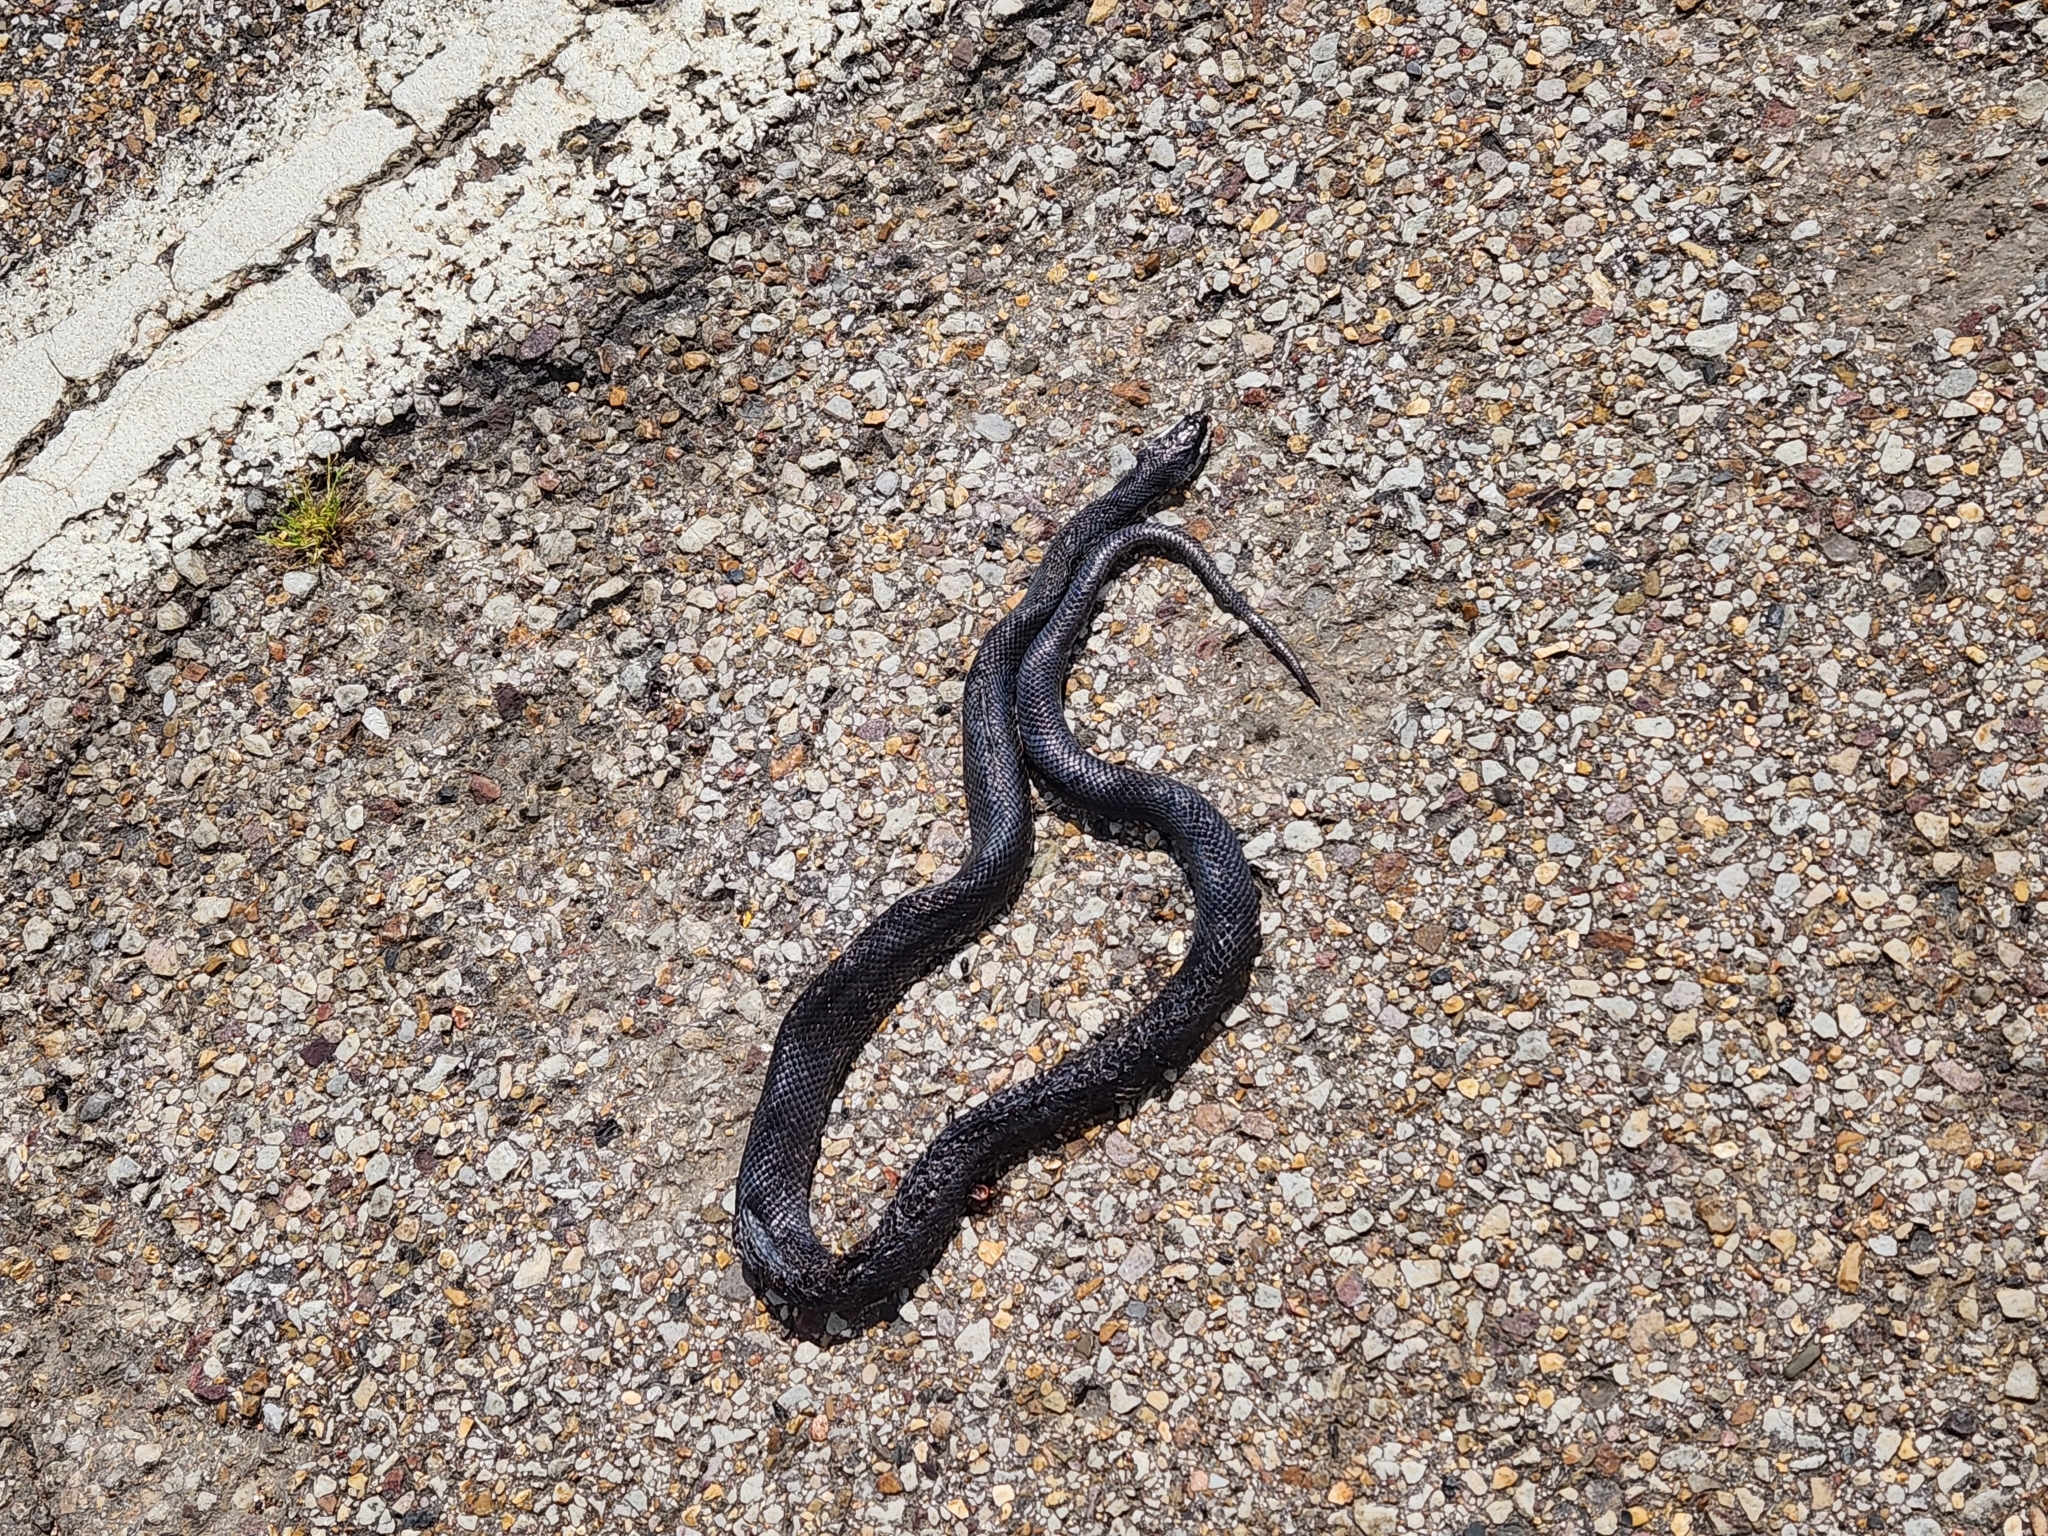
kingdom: Animalia
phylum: Chordata
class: Squamata
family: Colubridae
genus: Pantherophis
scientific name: Pantherophis obsoletus
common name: Black rat snake
